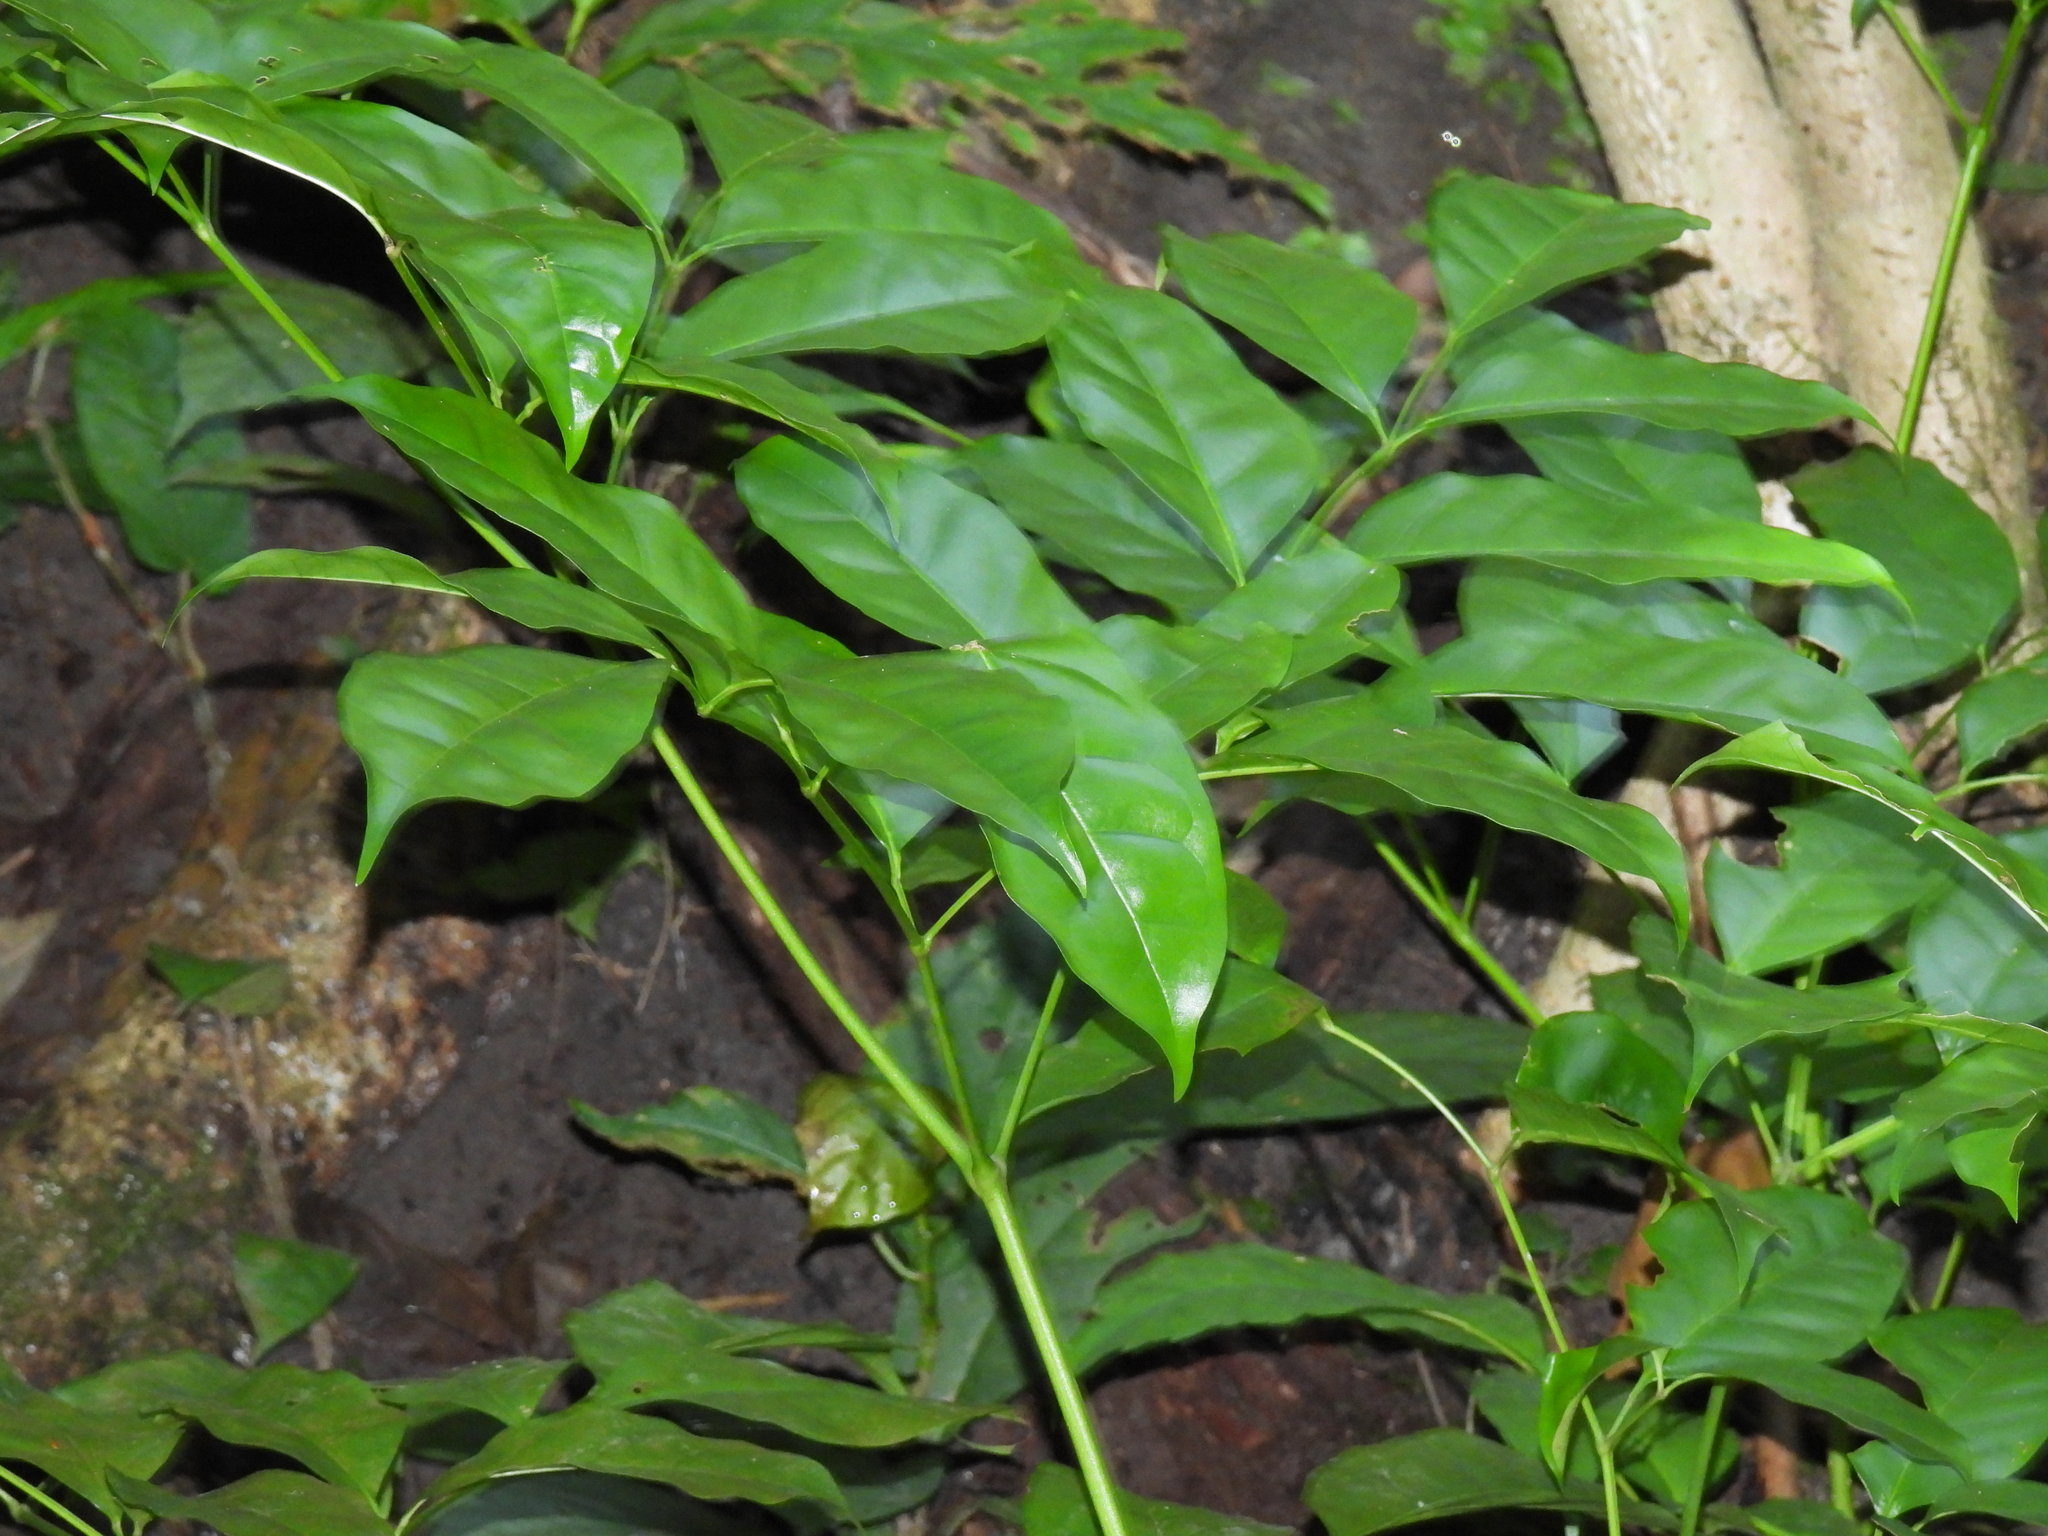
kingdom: Plantae
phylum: Tracheophyta
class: Magnoliopsida
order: Lamiales
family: Bignoniaceae
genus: Radermachera
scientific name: Radermachera quadripinnata
